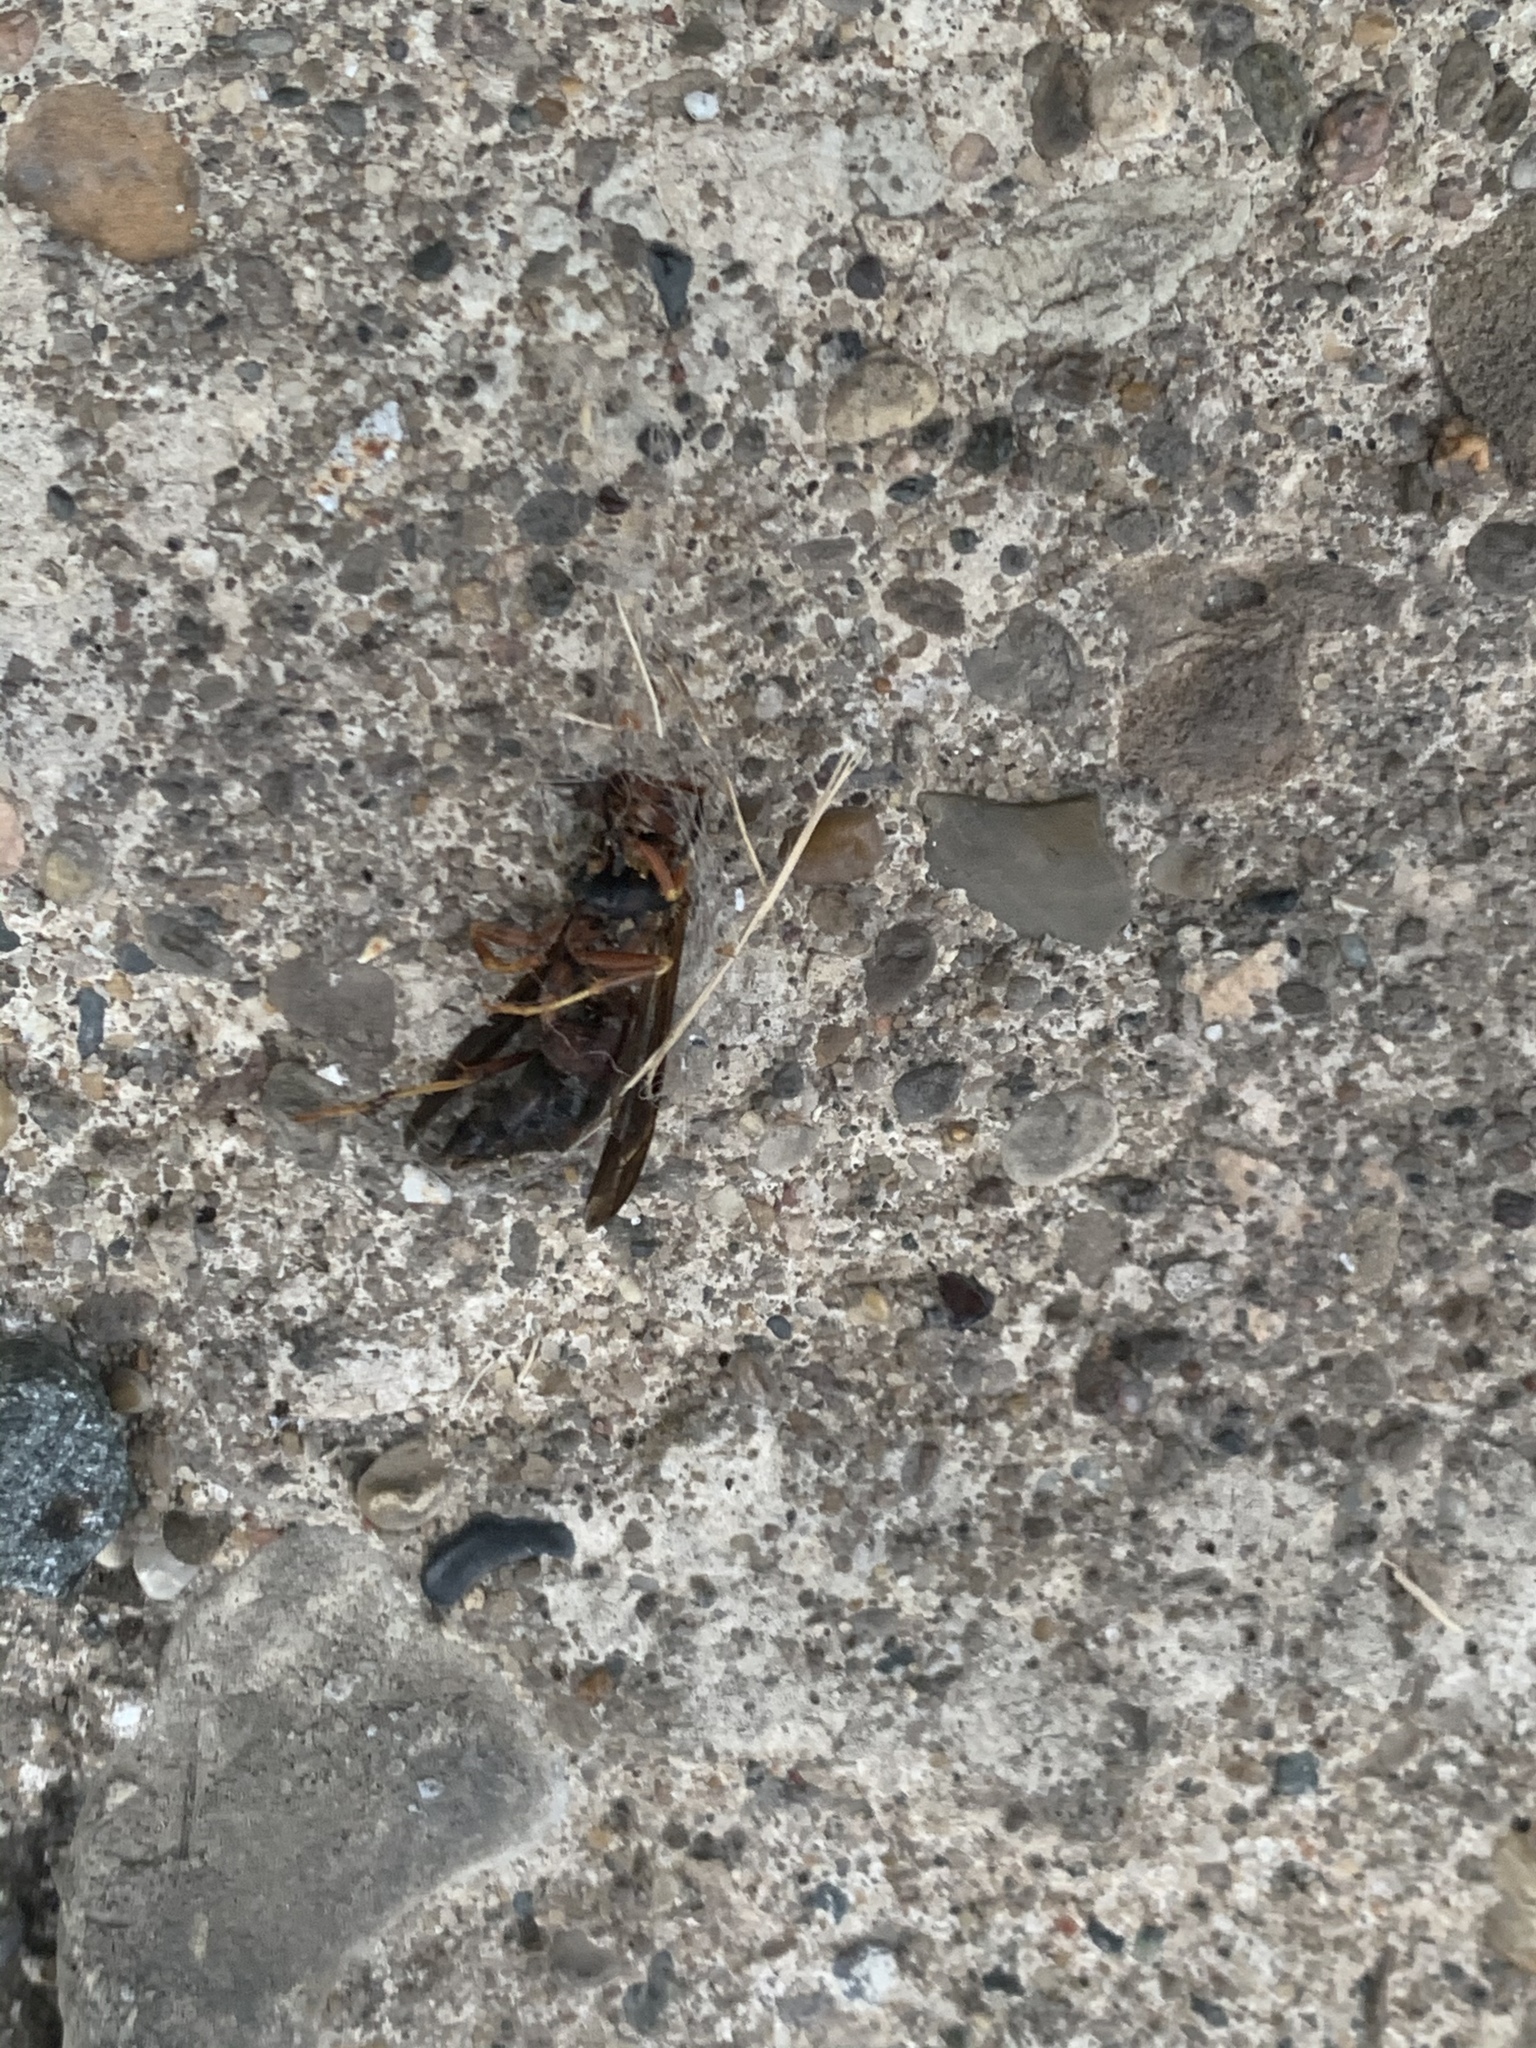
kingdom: Animalia
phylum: Arthropoda
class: Insecta
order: Hymenoptera
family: Vespidae
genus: Fuscopolistes
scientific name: Fuscopolistes
